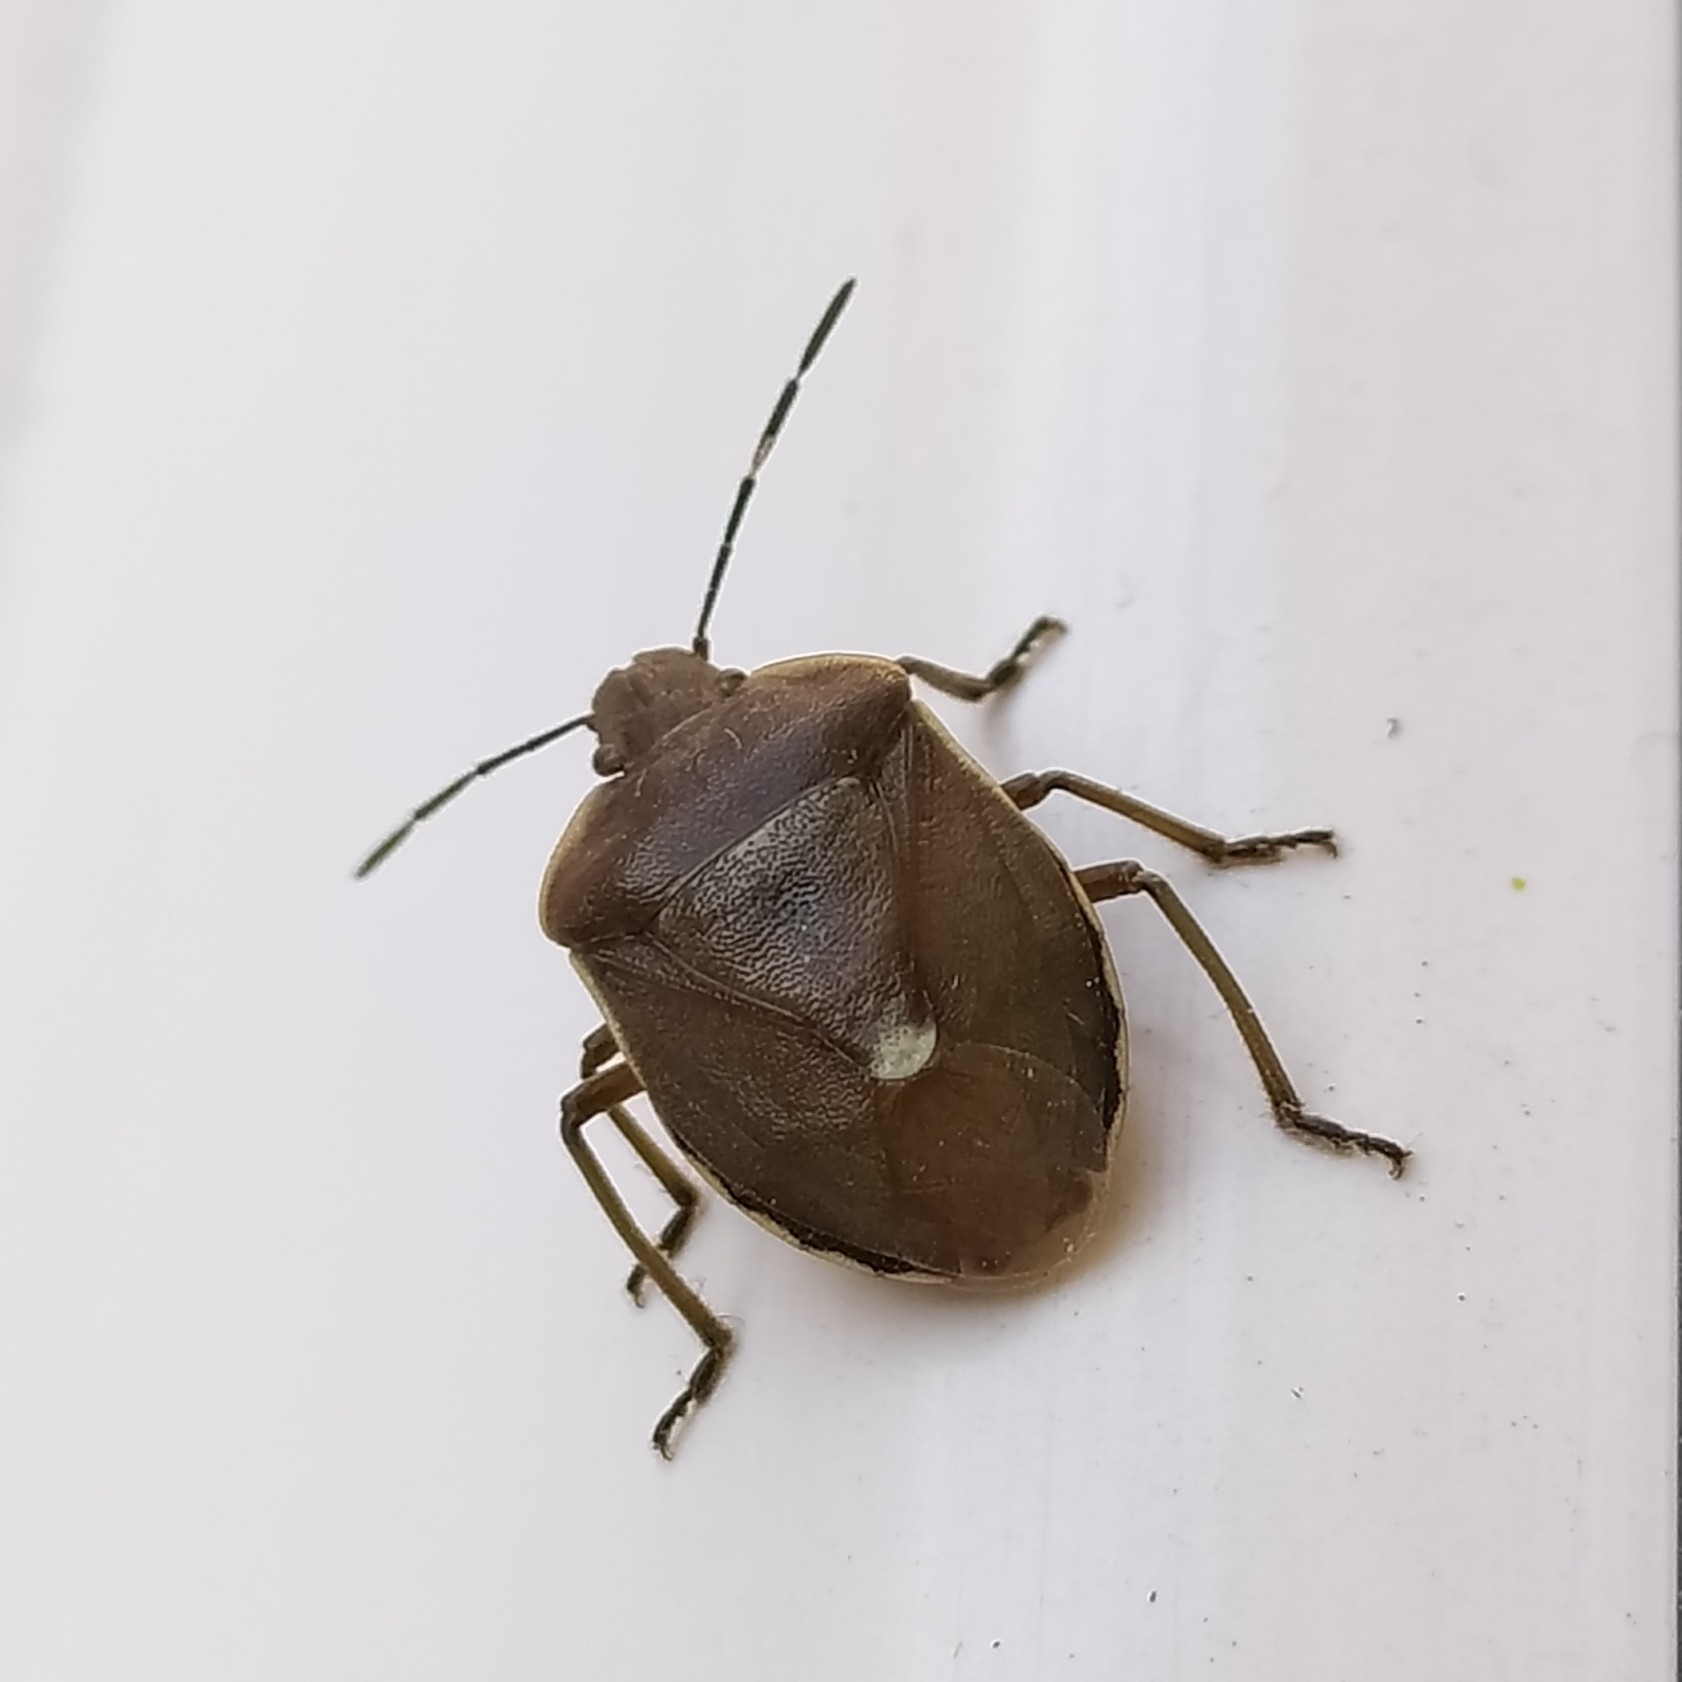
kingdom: Animalia
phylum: Arthropoda
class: Insecta
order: Hemiptera
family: Pentatomidae
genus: Chlorochroa
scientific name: Chlorochroa pinicola
